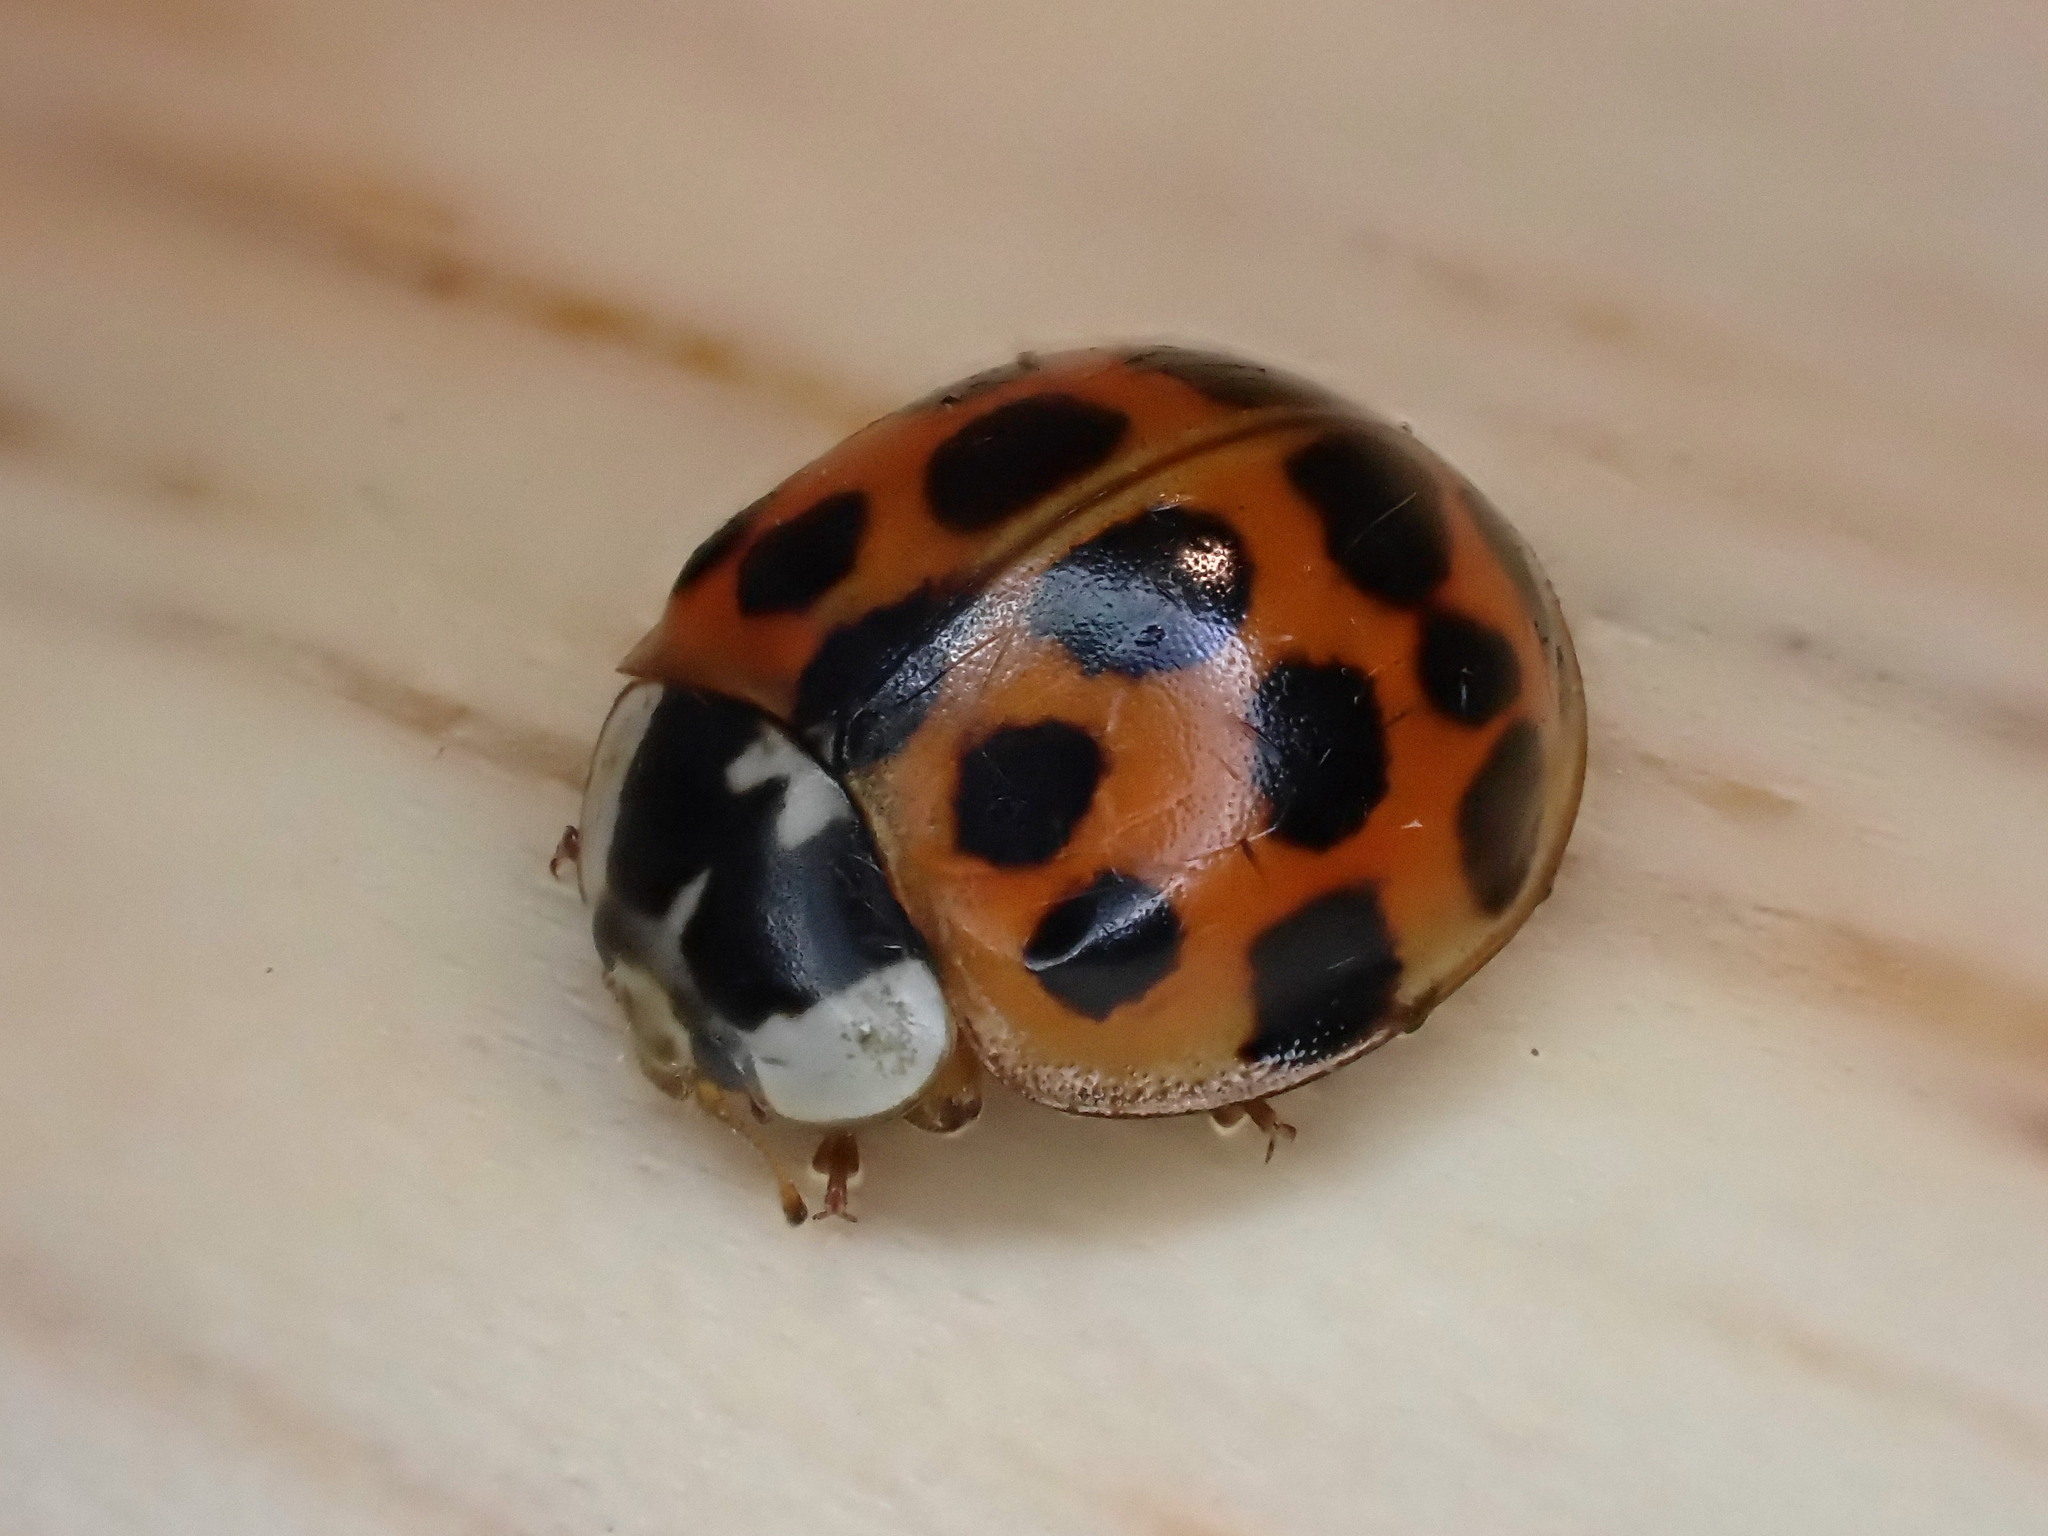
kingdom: Animalia
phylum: Arthropoda
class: Insecta
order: Coleoptera
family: Coccinellidae
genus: Harmonia
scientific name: Harmonia axyridis
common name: Harlequin ladybird
